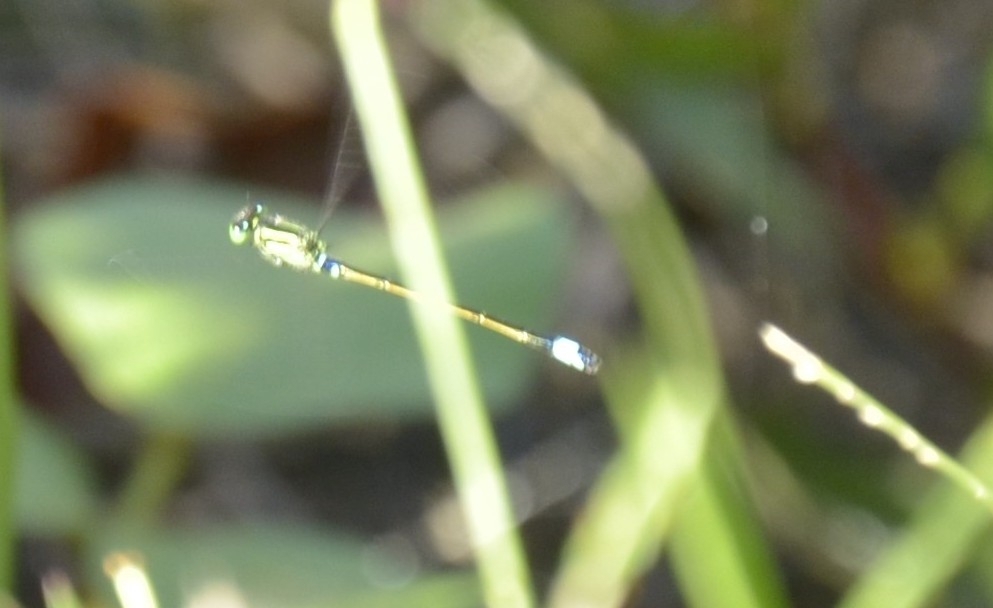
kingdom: Animalia
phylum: Arthropoda
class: Insecta
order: Odonata
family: Coenagrionidae
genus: Ischnura
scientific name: Ischnura senegalensis
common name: Tropical bluetail
